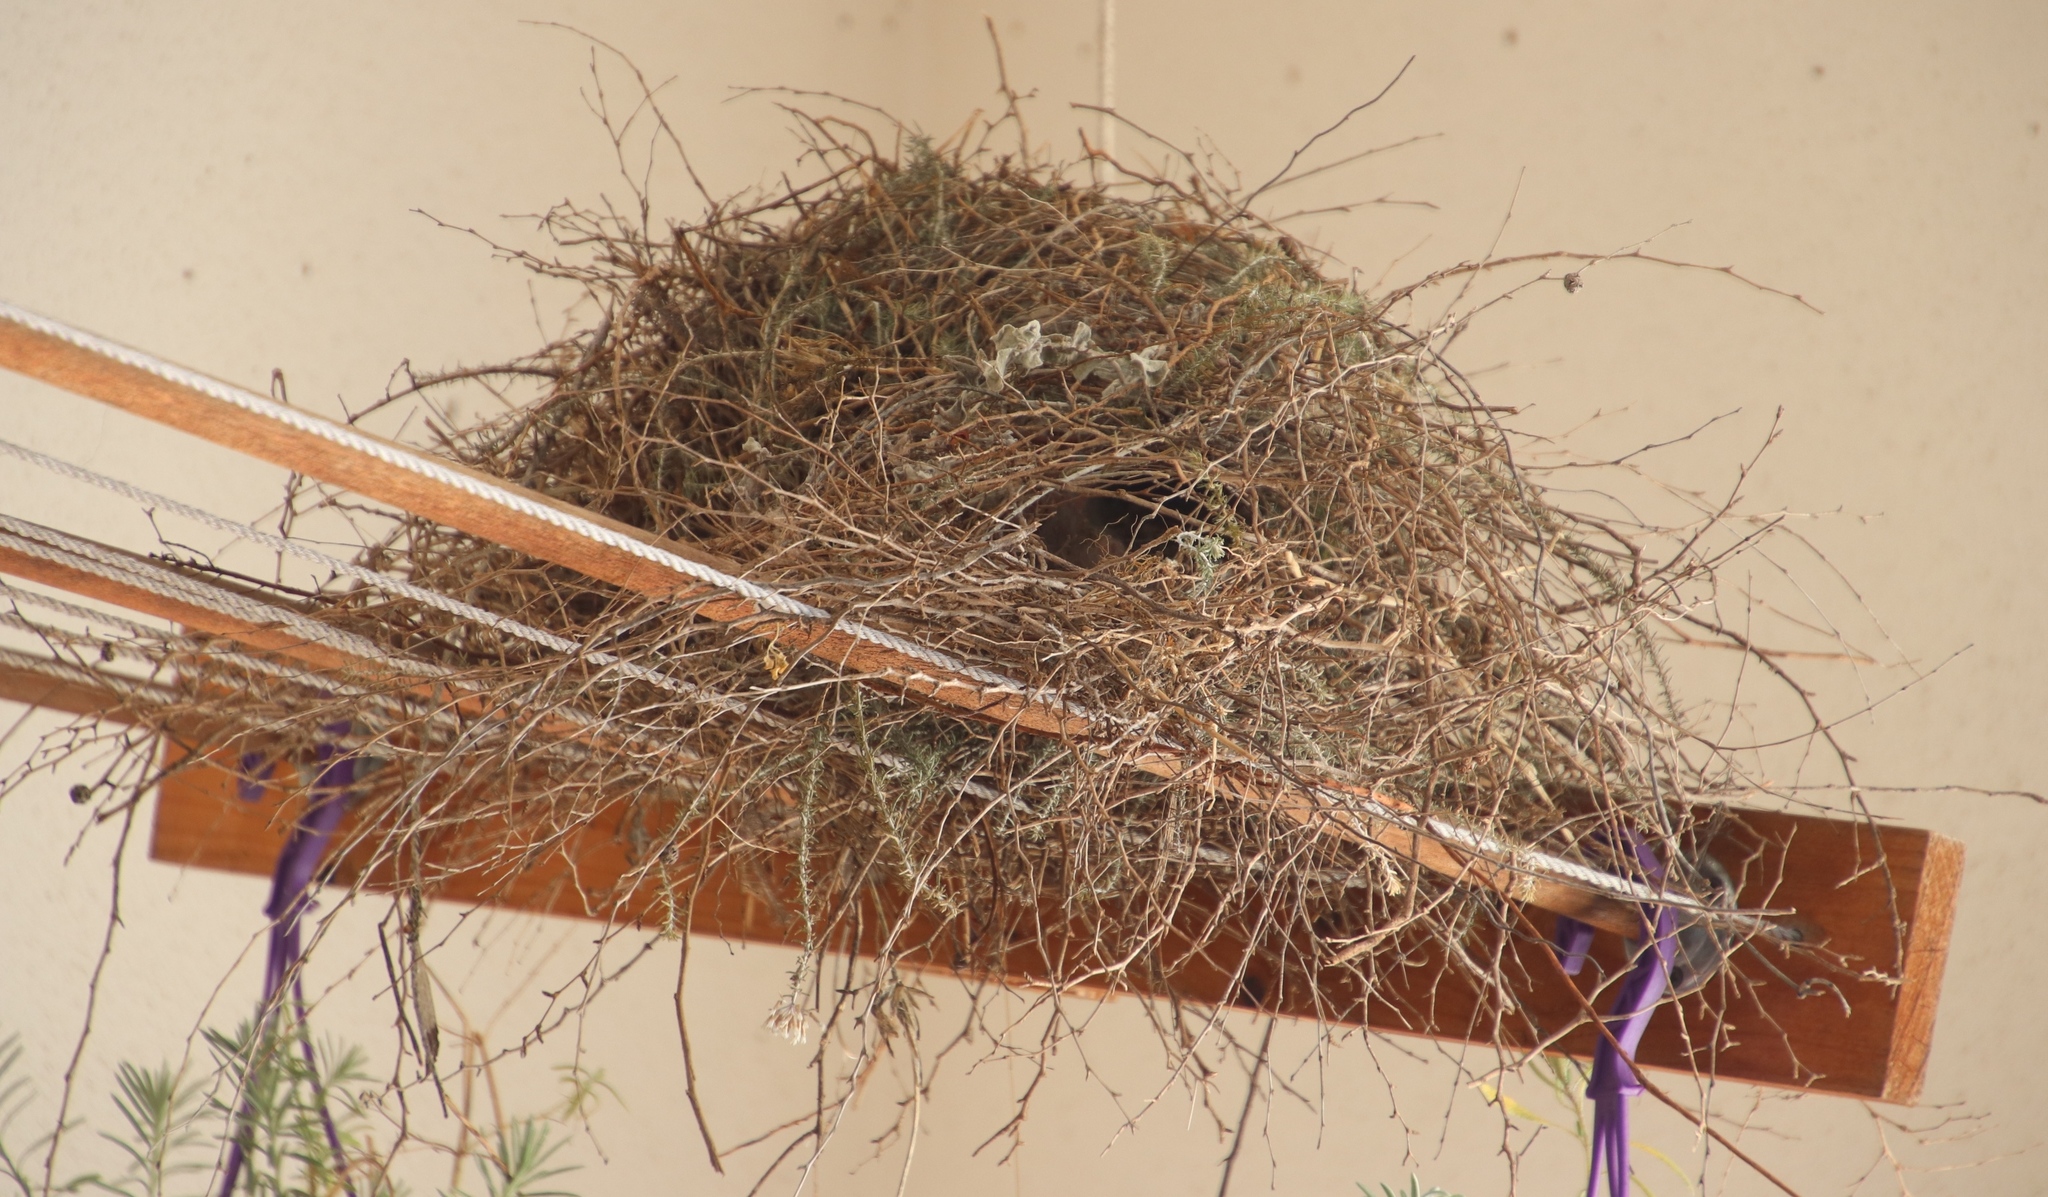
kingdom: Animalia
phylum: Chordata
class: Aves
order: Passeriformes
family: Passeridae
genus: Passer
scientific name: Passer melanurus
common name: Cape sparrow
